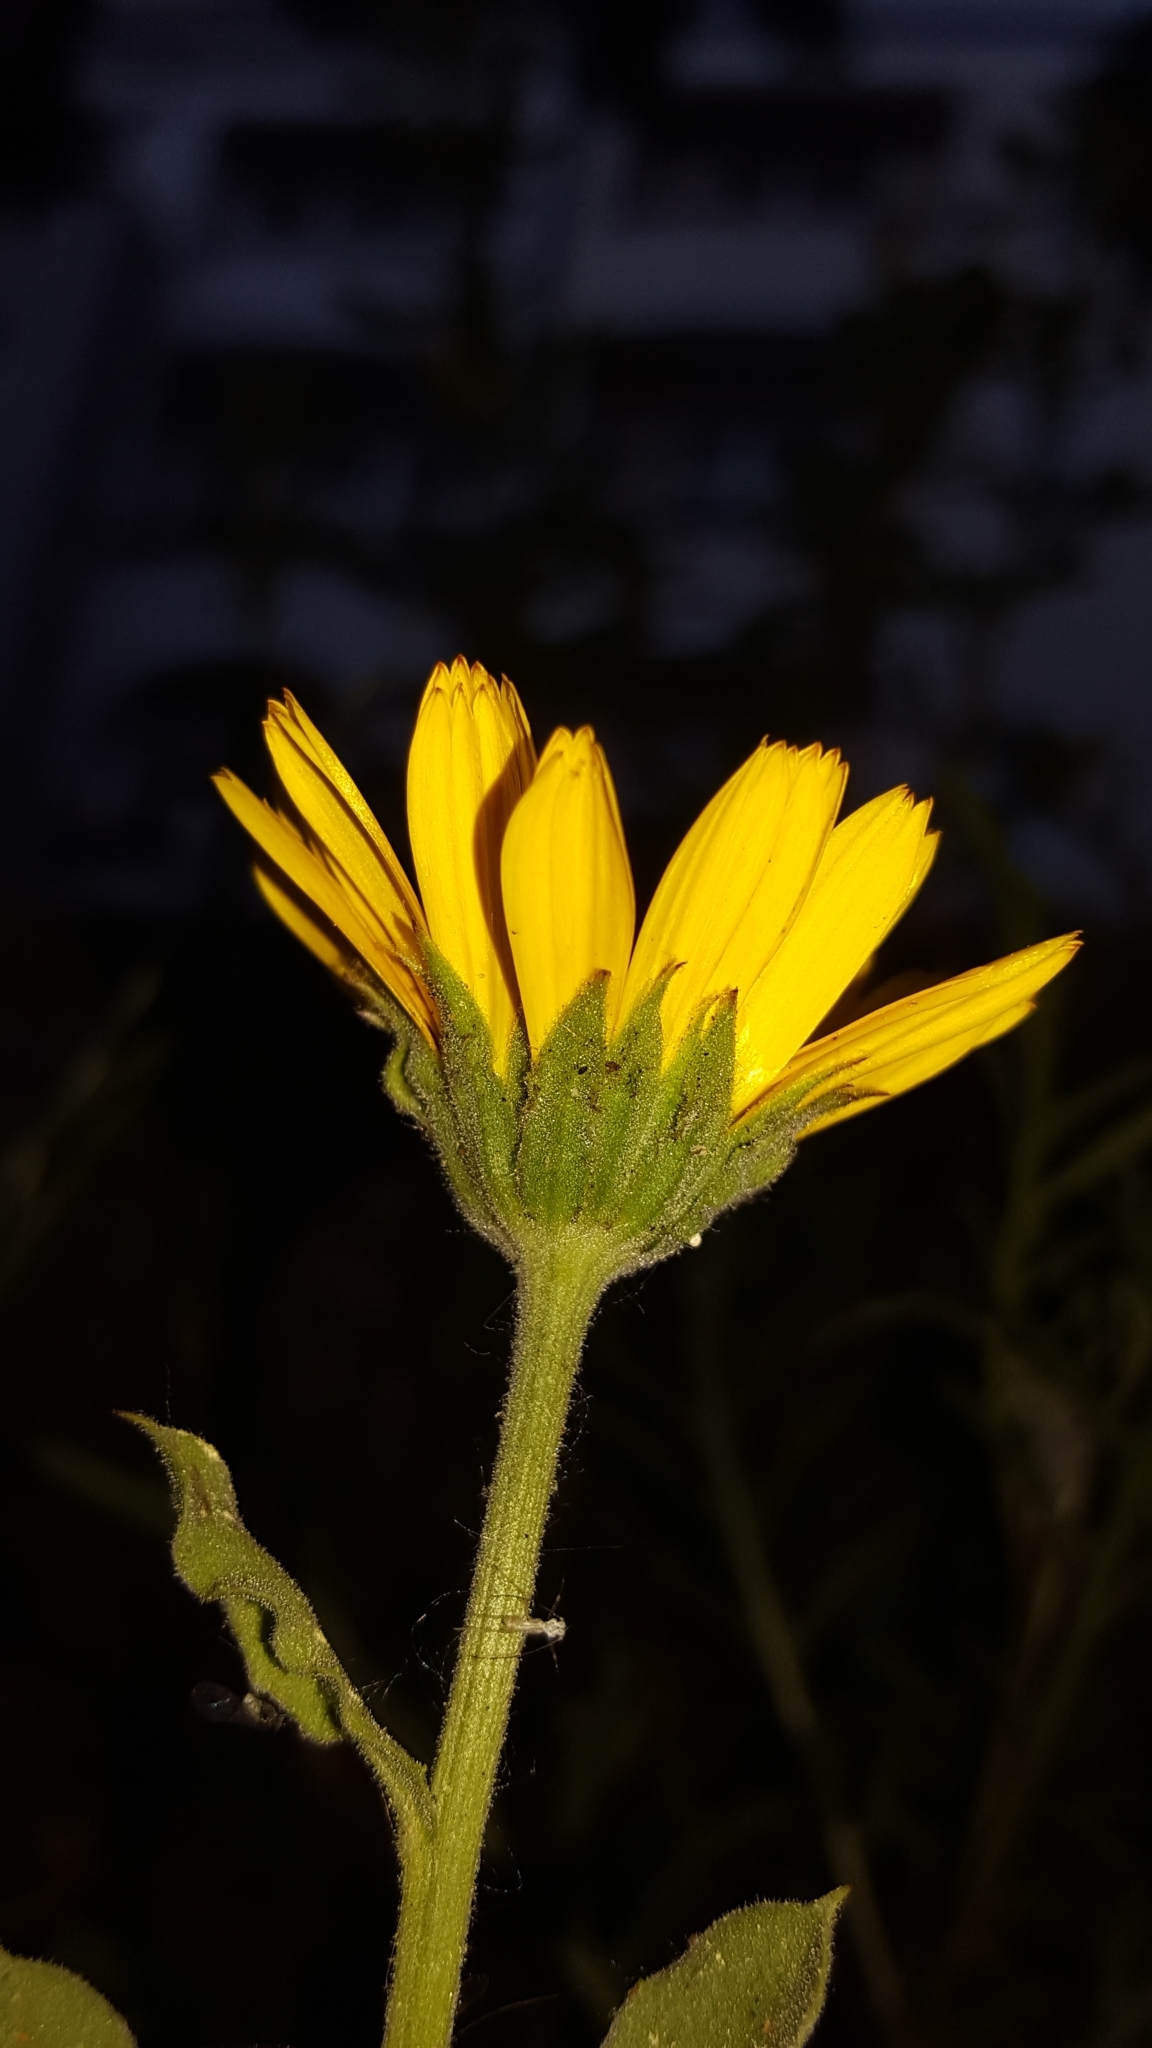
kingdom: Plantae
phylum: Tracheophyta
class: Magnoliopsida
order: Asterales
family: Asteraceae
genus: Calendula
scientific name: Calendula officinalis
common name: Pot marigold
